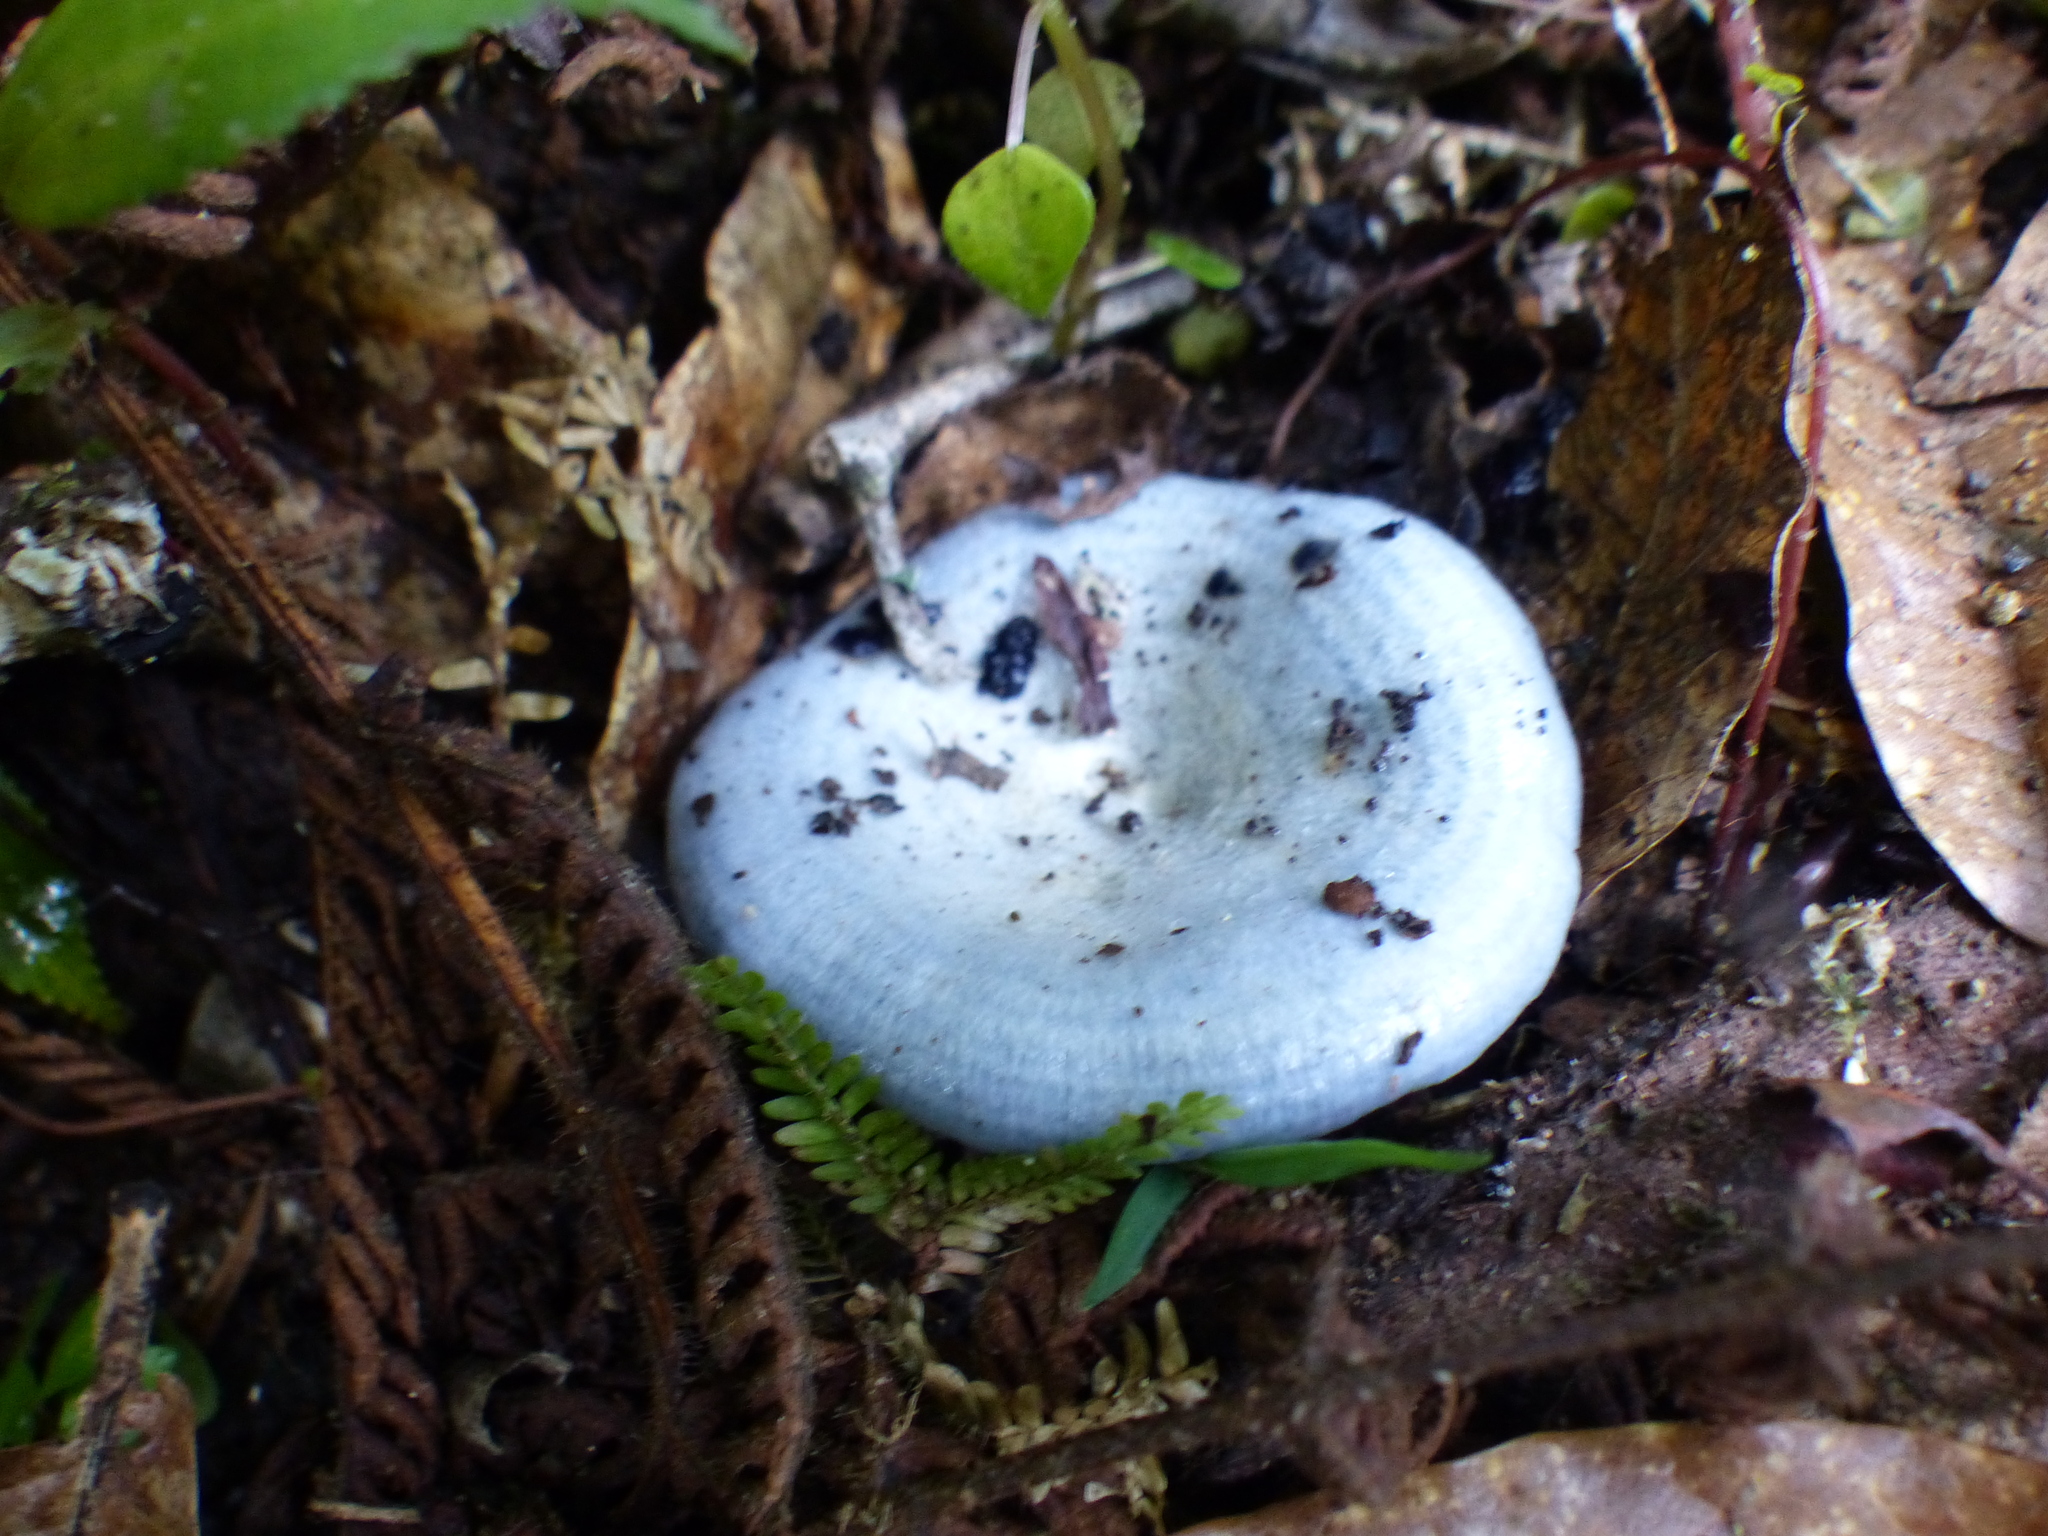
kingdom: Fungi
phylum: Basidiomycota
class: Agaricomycetes
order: Russulales
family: Russulaceae
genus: Lactarius
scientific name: Lactarius indigo
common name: Indigo milk cap
